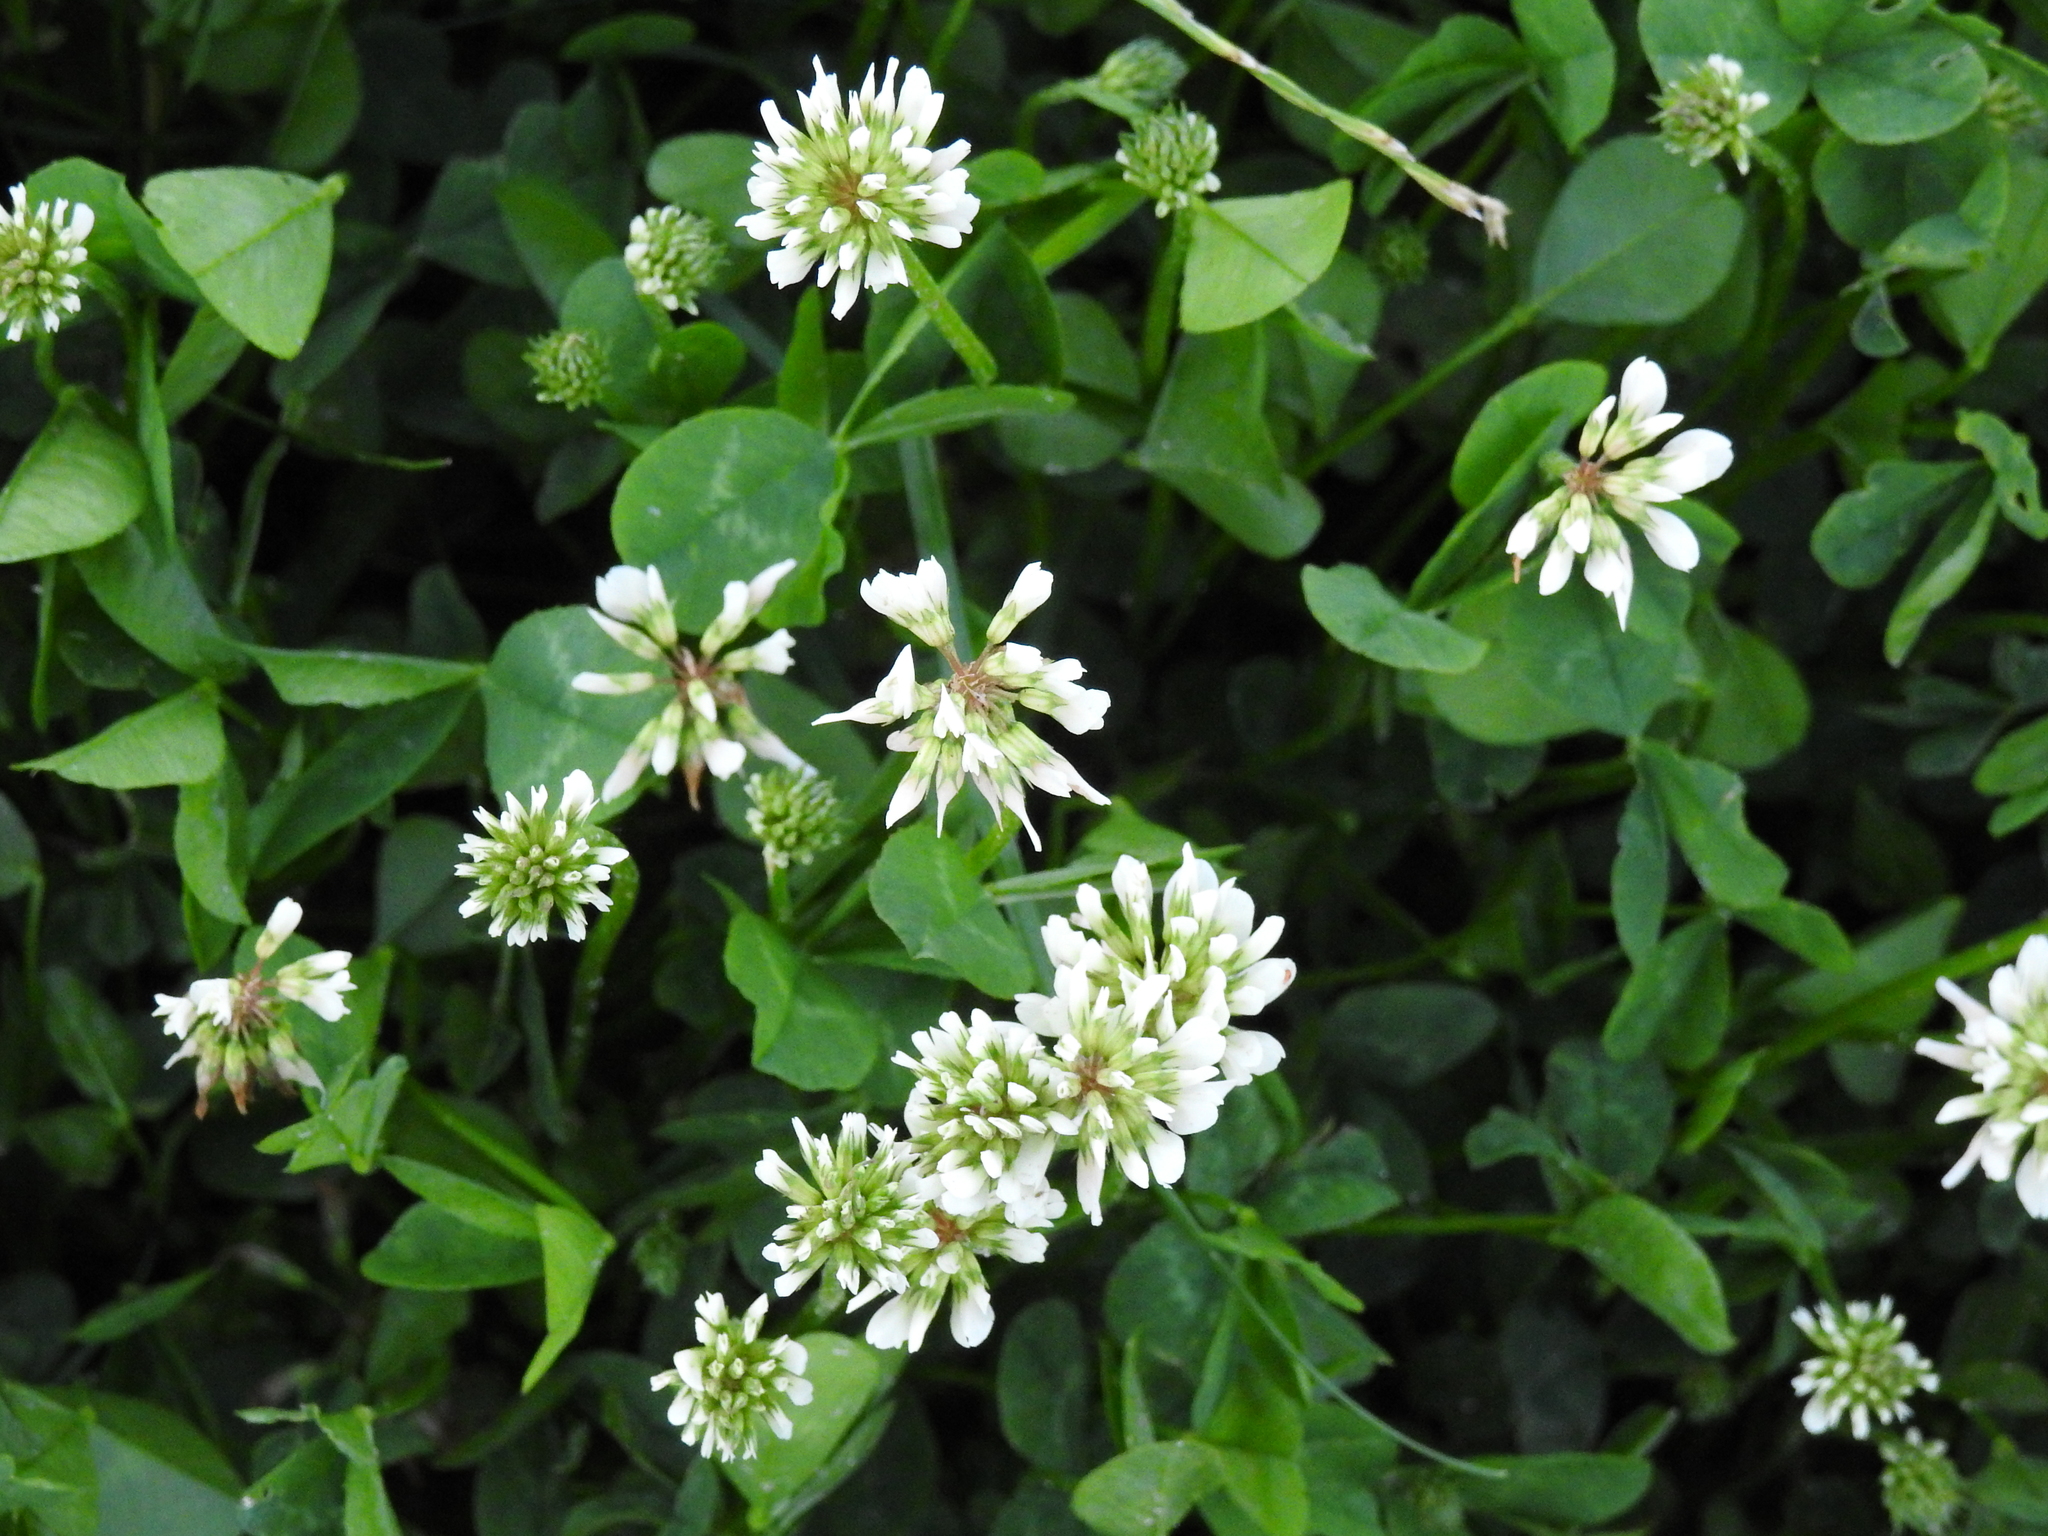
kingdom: Plantae
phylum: Tracheophyta
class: Magnoliopsida
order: Fabales
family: Fabaceae
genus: Trifolium
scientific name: Trifolium repens
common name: White clover
